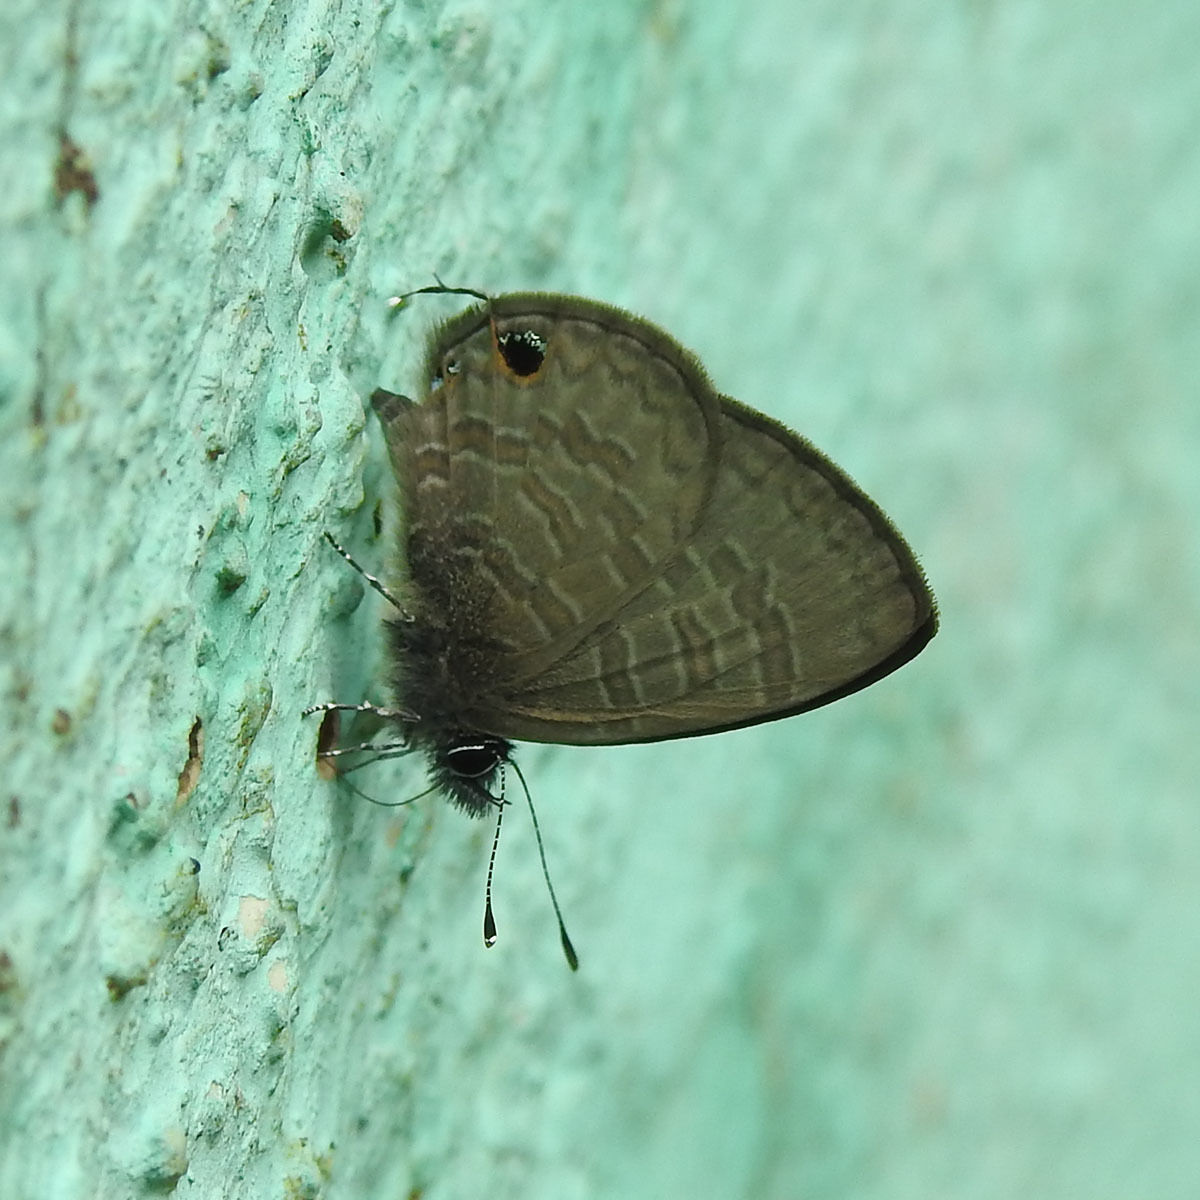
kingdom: Animalia
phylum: Arthropoda
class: Insecta
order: Lepidoptera
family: Lycaenidae
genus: Prosotas
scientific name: Prosotas nora
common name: Common line blue
